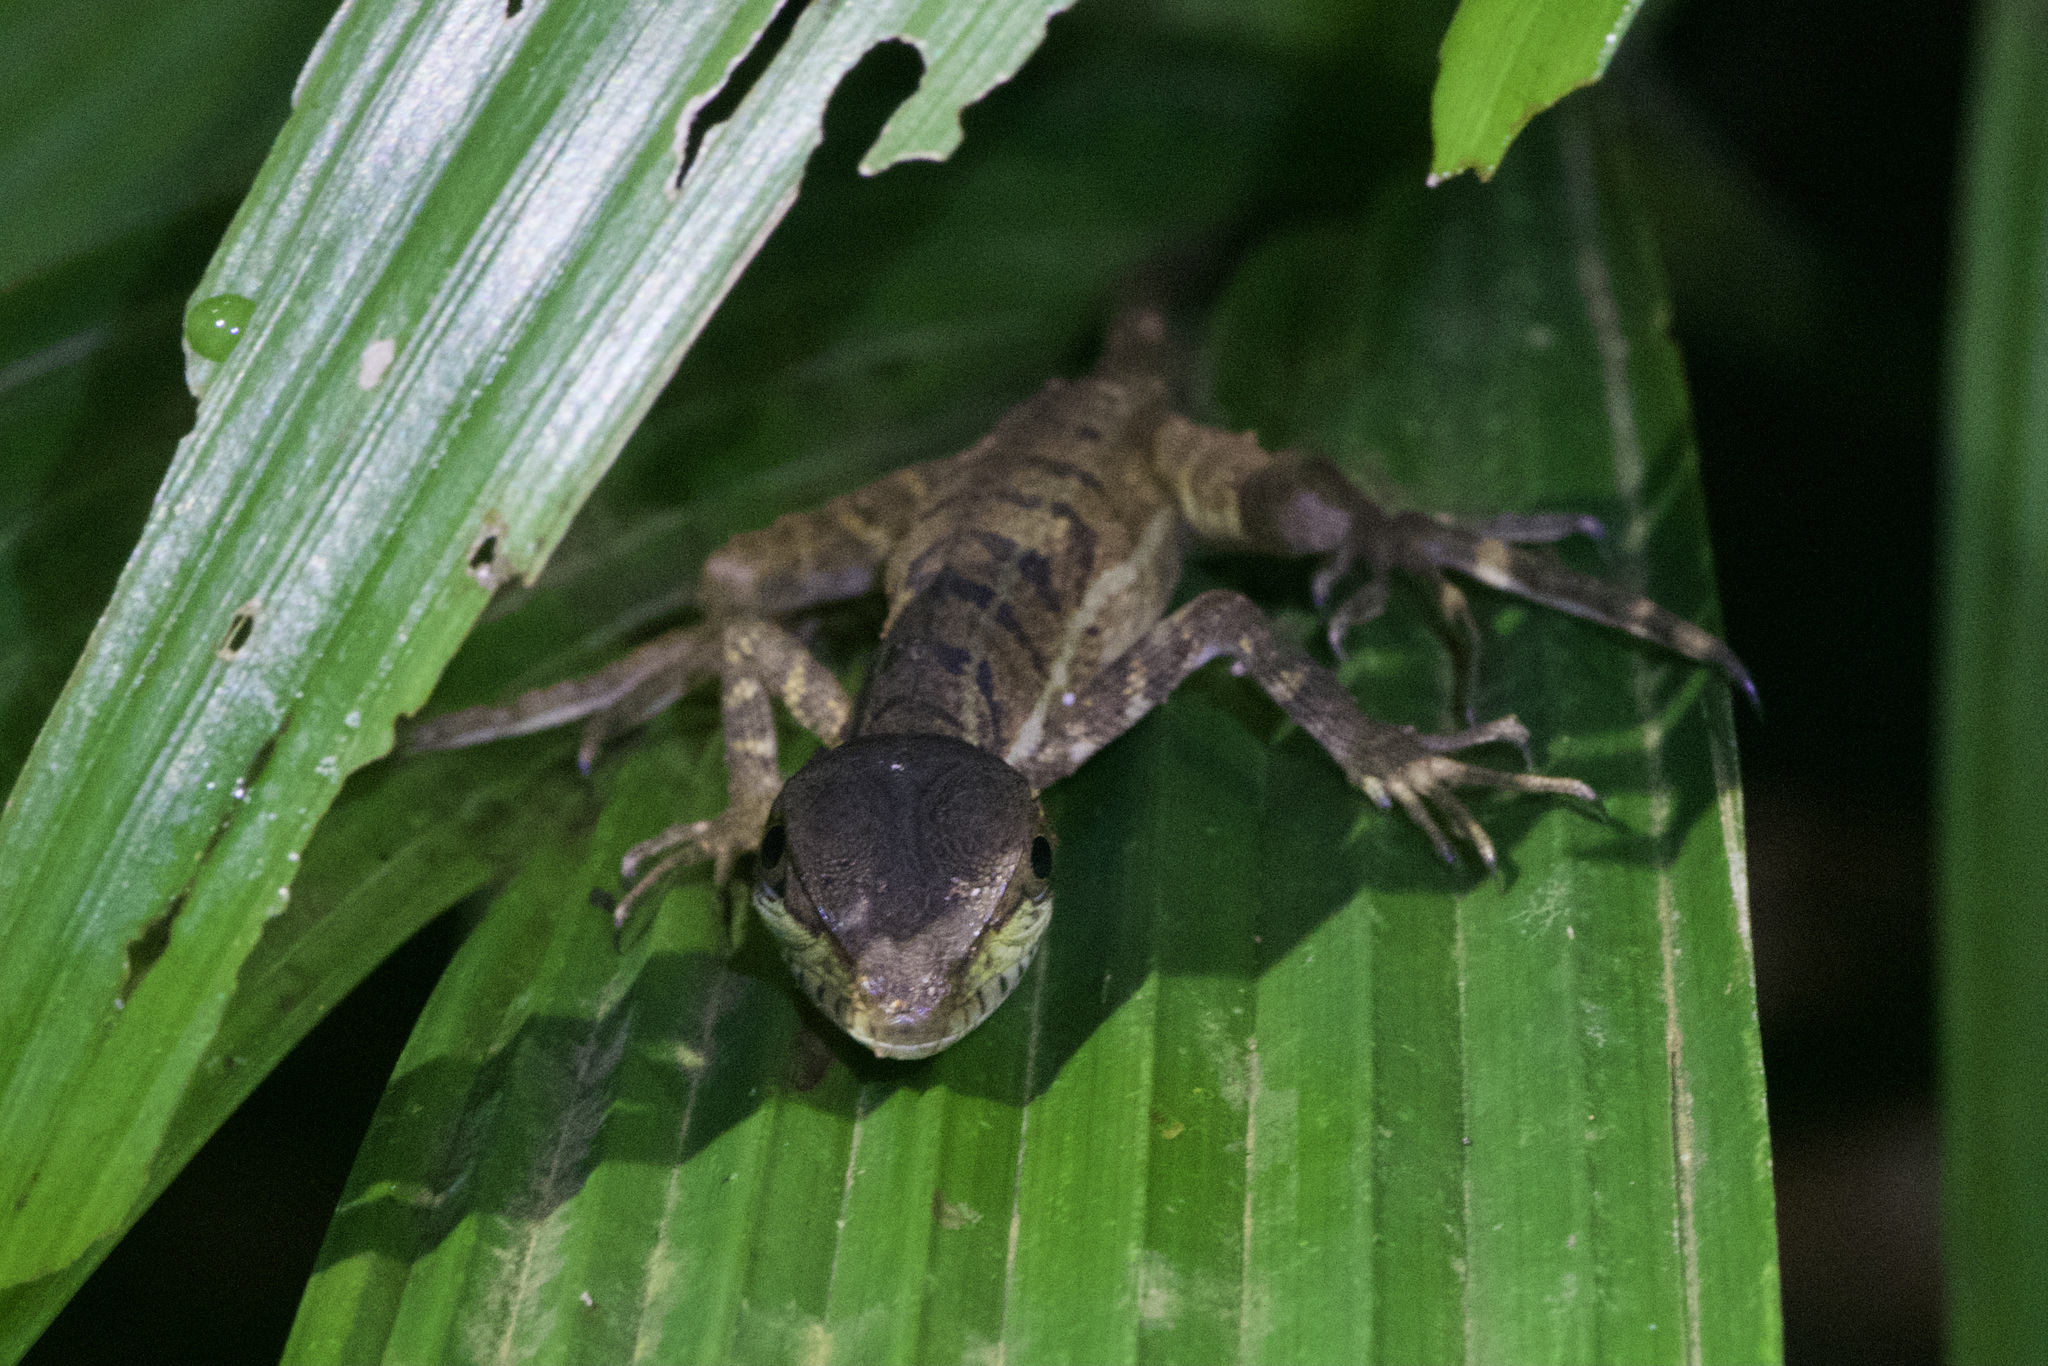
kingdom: Animalia
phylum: Chordata
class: Squamata
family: Corytophanidae
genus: Basiliscus
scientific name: Basiliscus basiliscus
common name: Common basilisk
